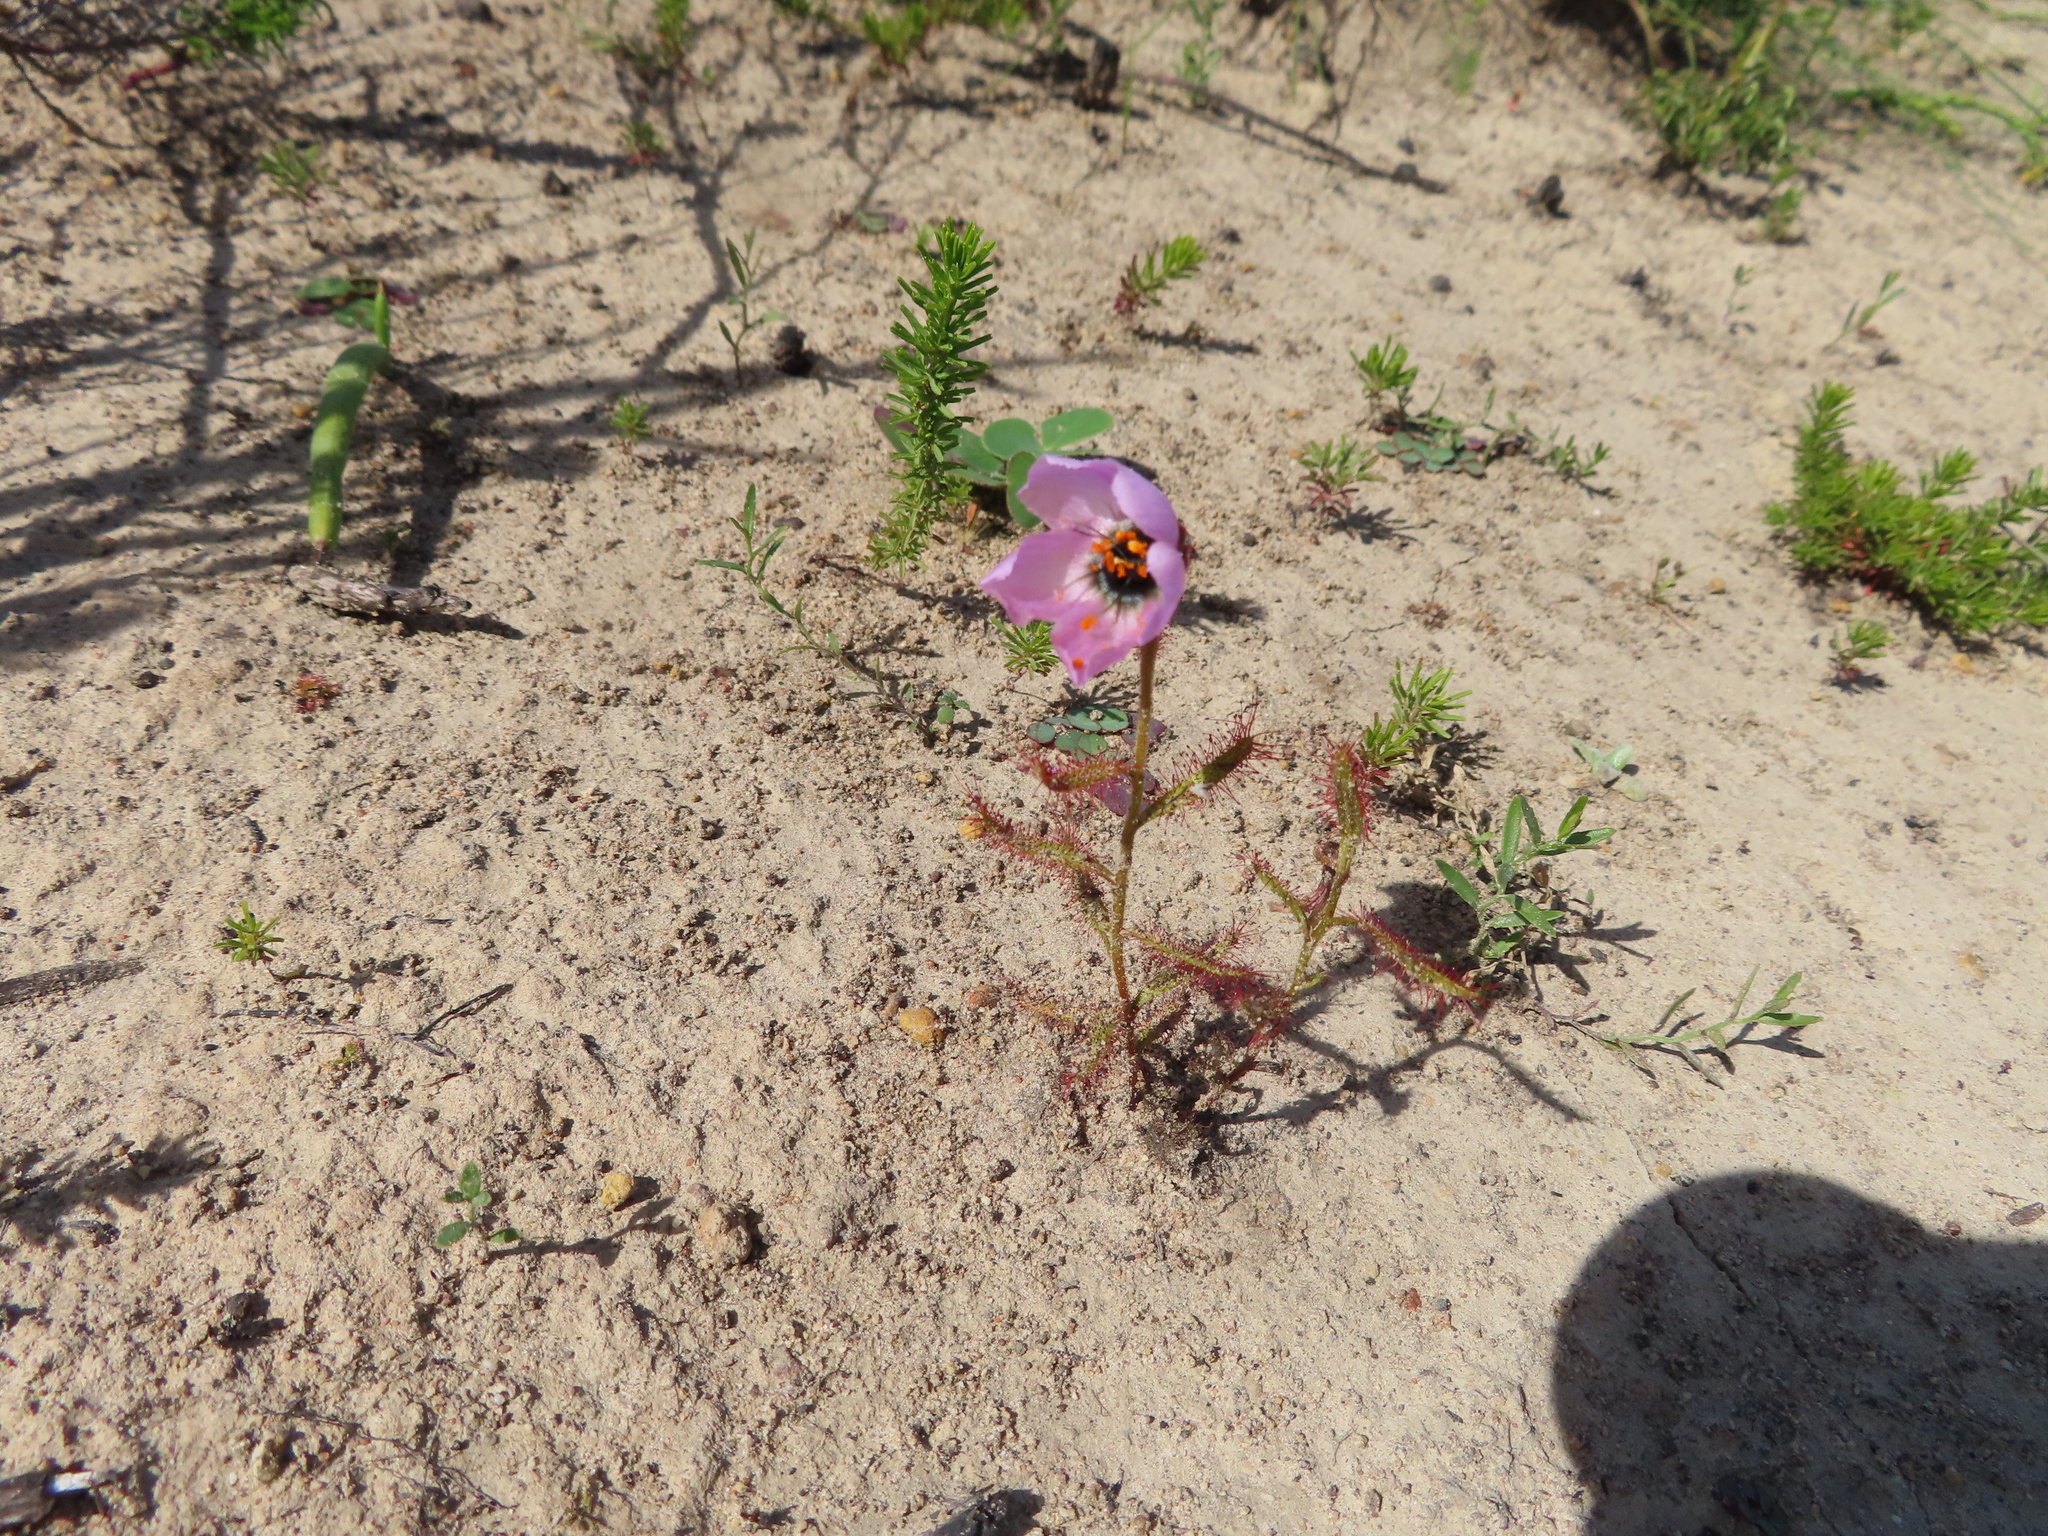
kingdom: Plantae
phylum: Tracheophyta
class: Magnoliopsida
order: Caryophyllales
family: Droseraceae
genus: Drosera
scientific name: Drosera cistiflora
